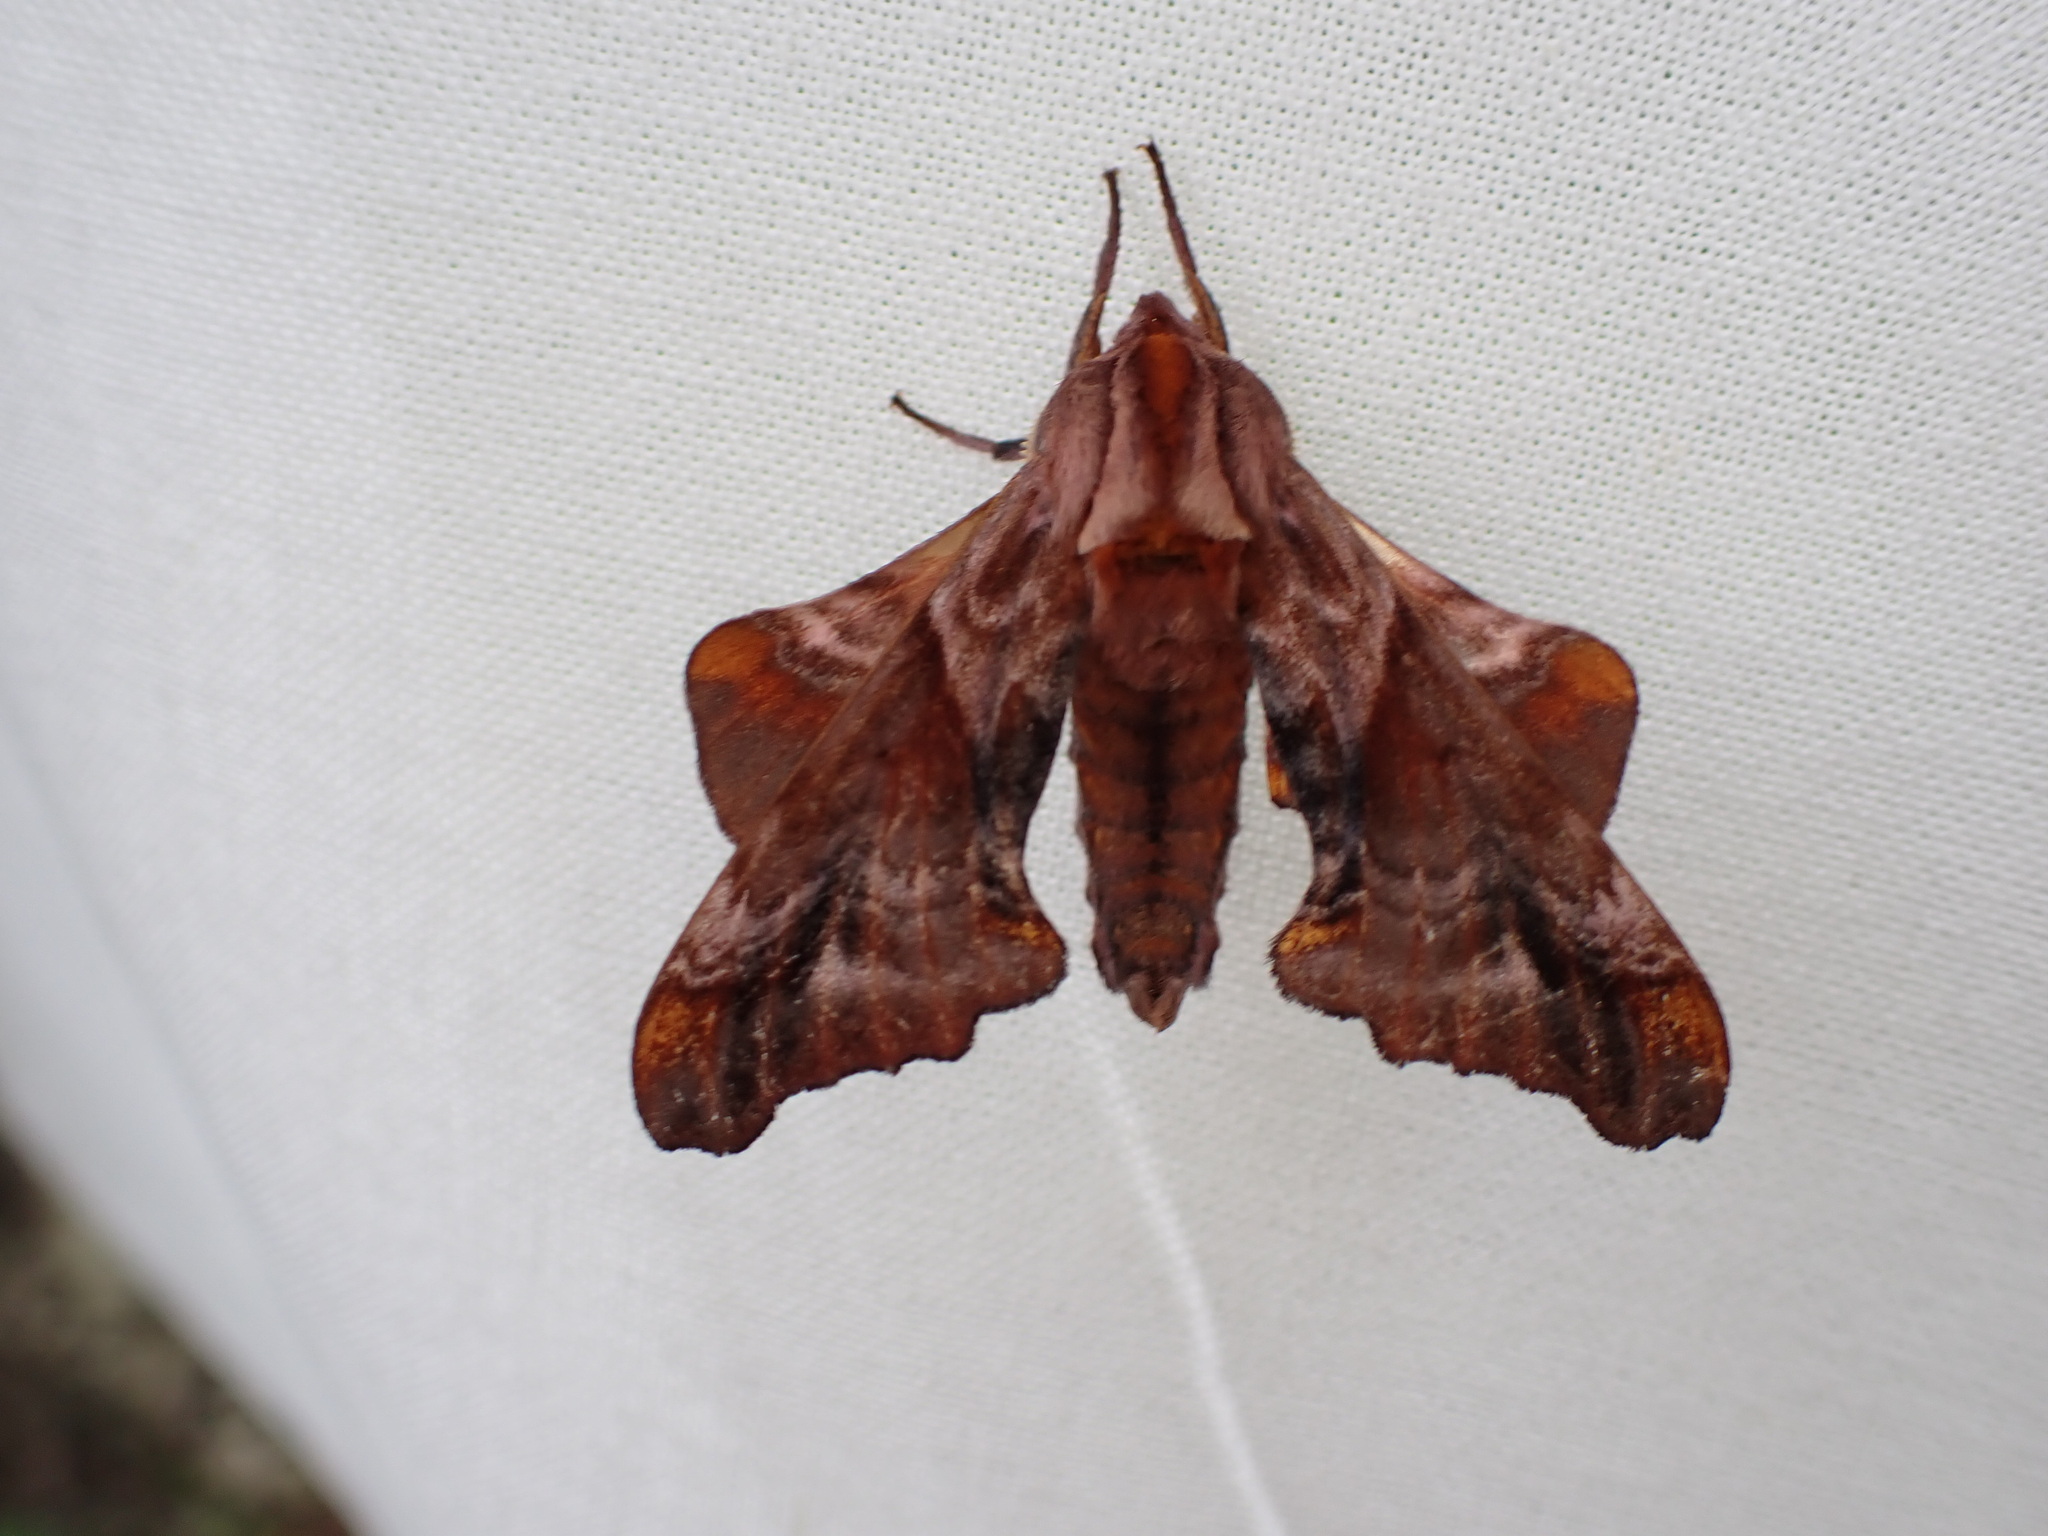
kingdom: Animalia
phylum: Arthropoda
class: Insecta
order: Lepidoptera
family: Sphingidae
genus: Paonias
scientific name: Paonias myops
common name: Small-eyed sphinx
